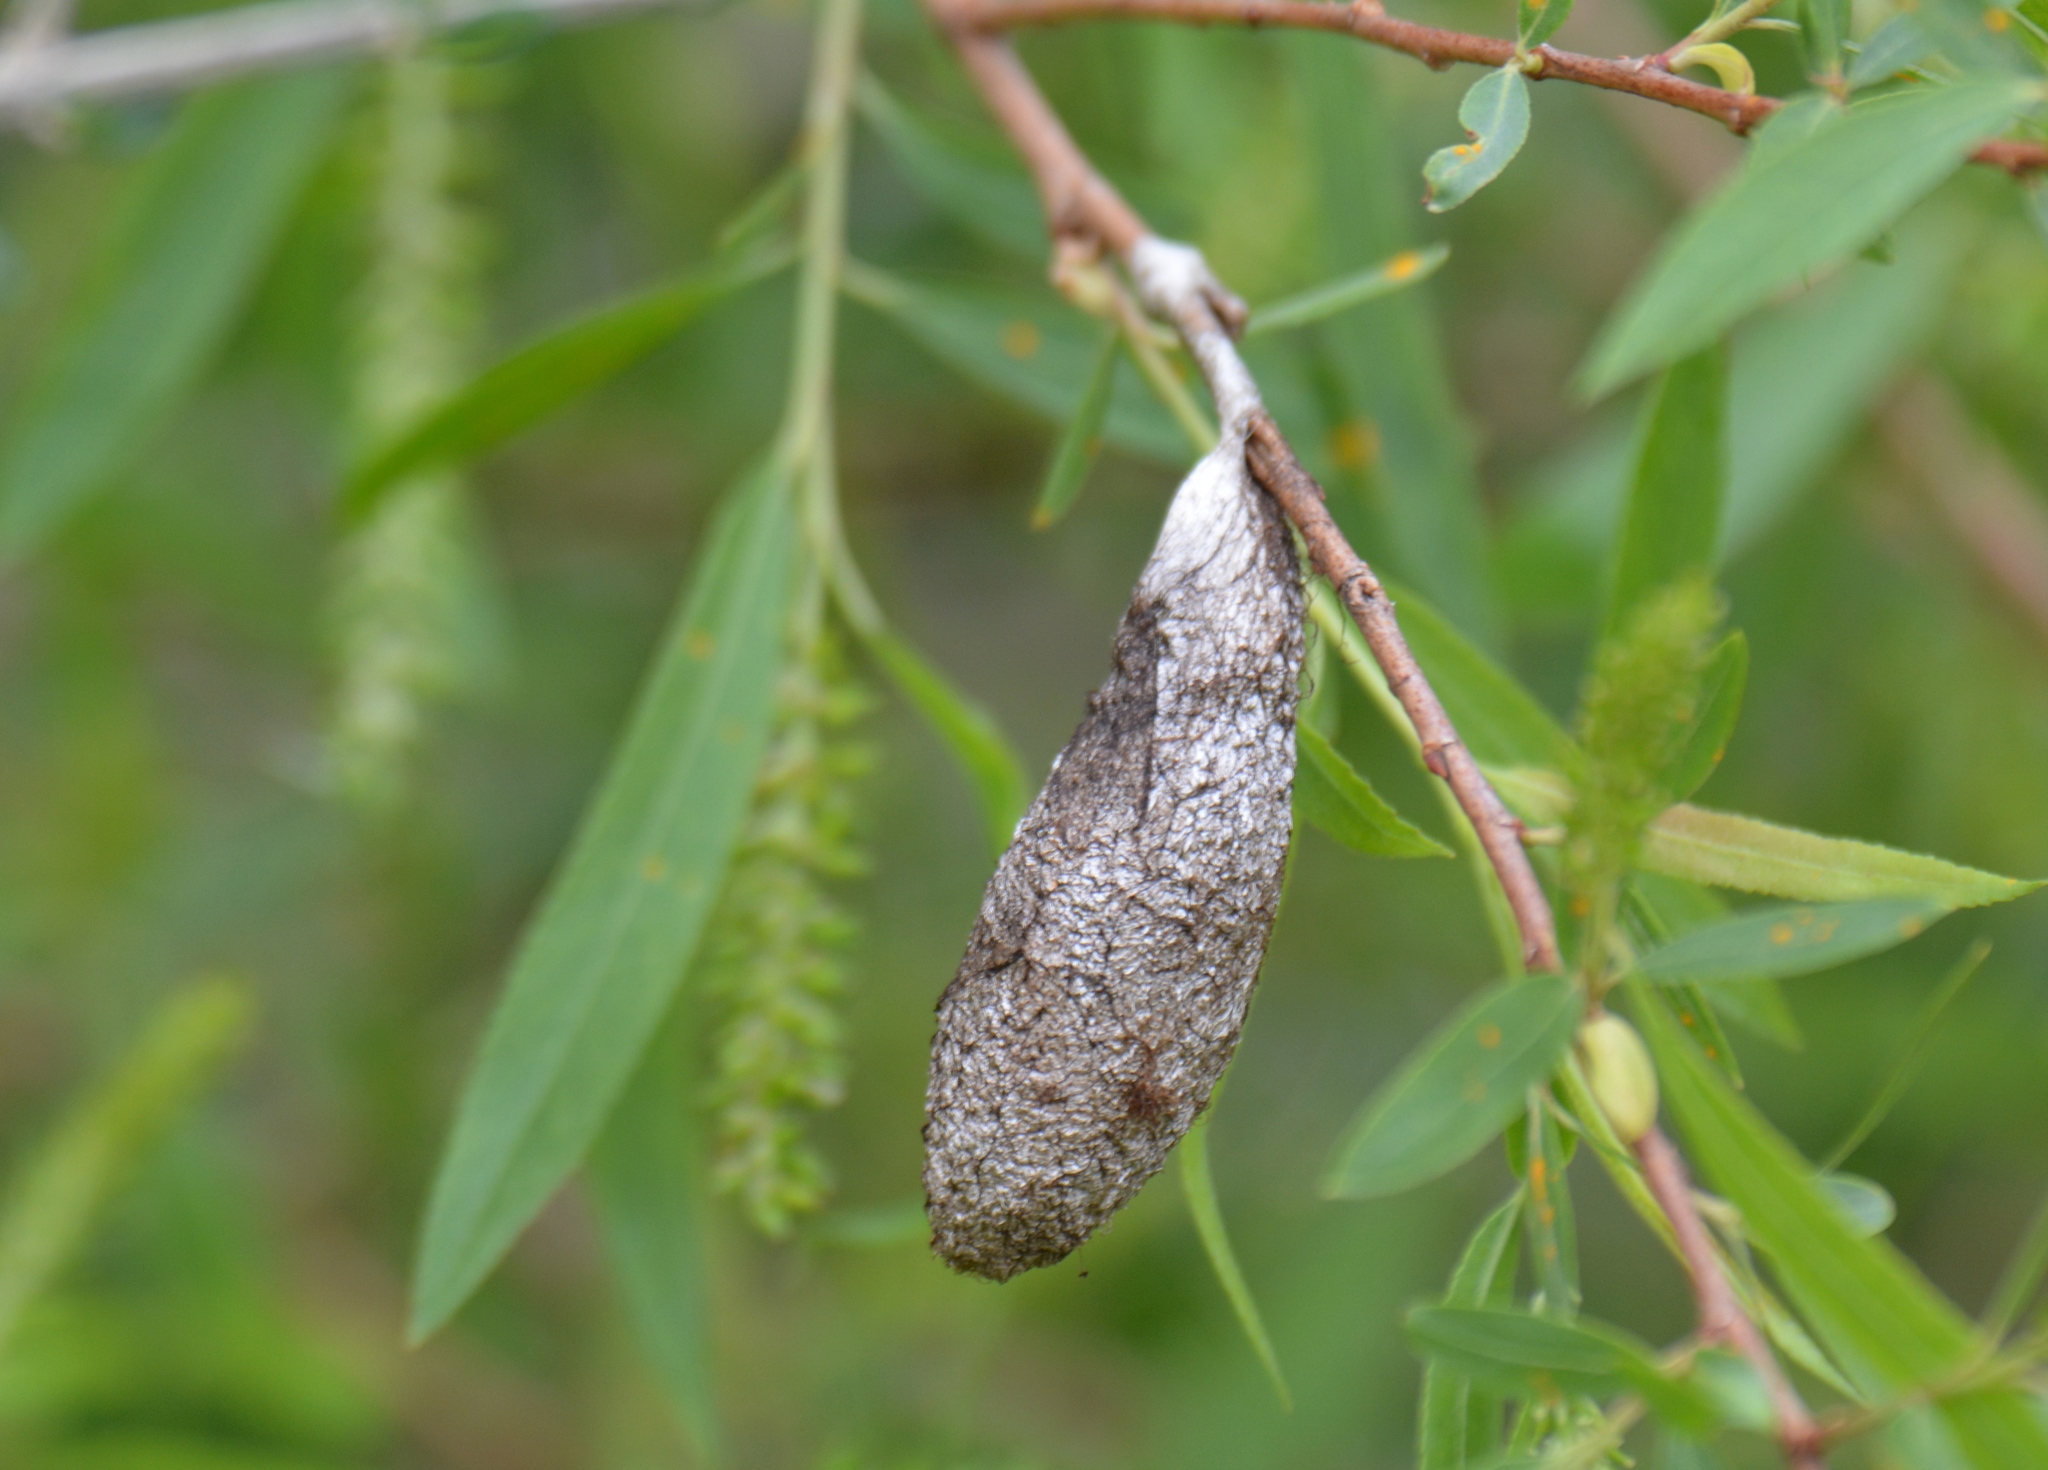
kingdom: Animalia
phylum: Arthropoda
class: Insecta
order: Lepidoptera
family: Saturniidae
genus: Rothschildia
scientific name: Rothschildia lebeau
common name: Lebeau's rothschildia
